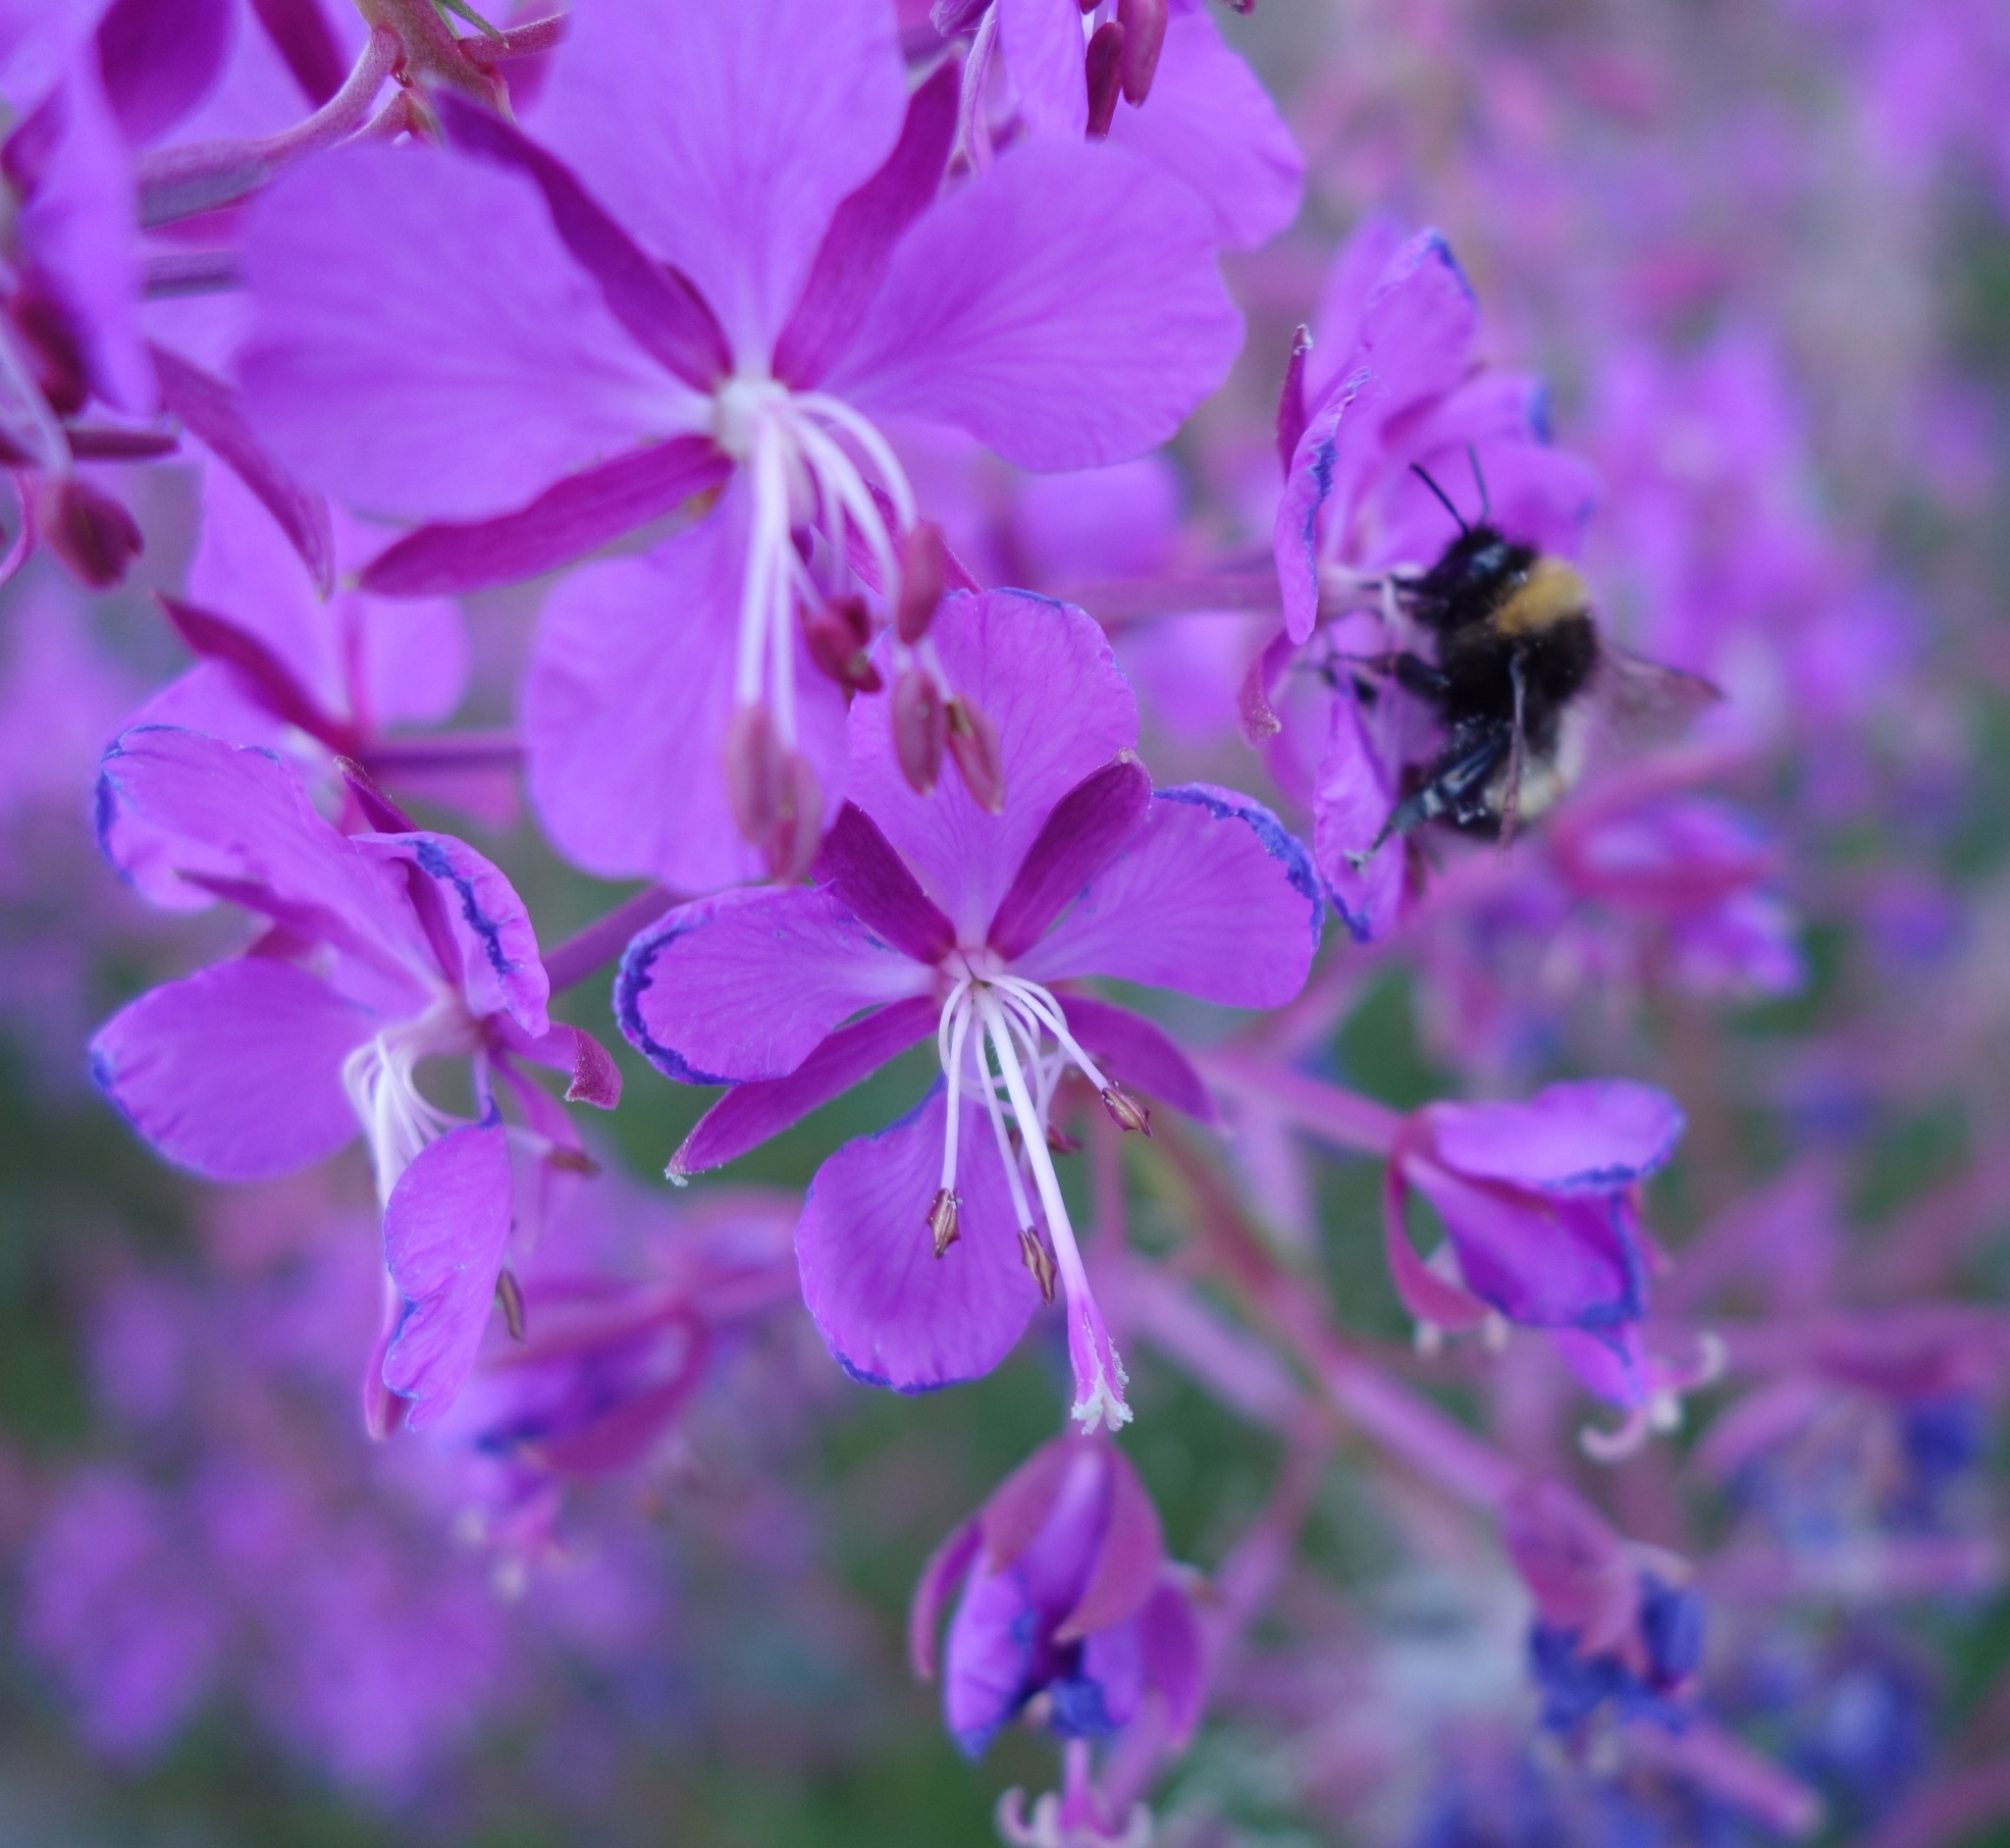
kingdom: Plantae
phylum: Tracheophyta
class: Magnoliopsida
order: Myrtales
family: Onagraceae
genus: Chamaenerion
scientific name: Chamaenerion angustifolium
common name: Fireweed
